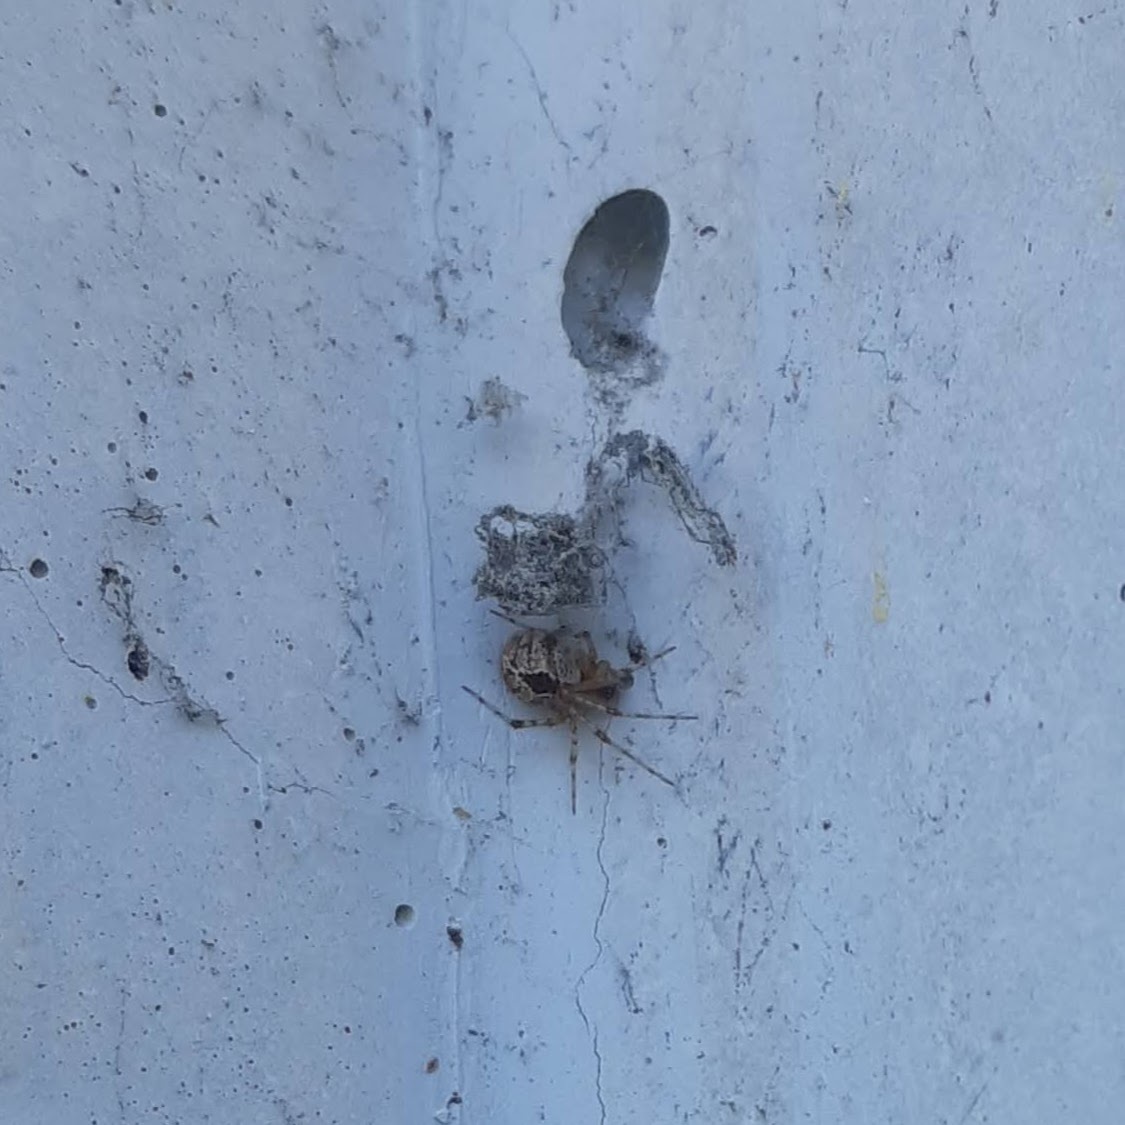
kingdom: Animalia
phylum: Arthropoda
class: Arachnida
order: Araneae
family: Theridiidae
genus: Cryptachaea
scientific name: Cryptachaea veruculata
